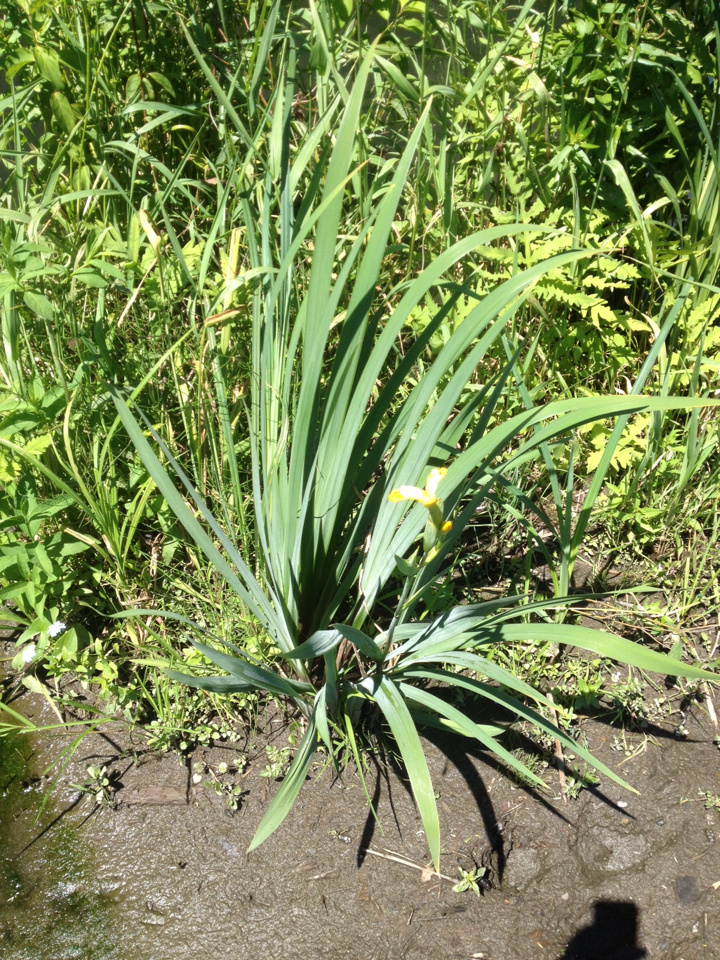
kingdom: Plantae
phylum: Tracheophyta
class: Liliopsida
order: Asparagales
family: Iridaceae
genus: Iris
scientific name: Iris pseudacorus
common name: Yellow flag
